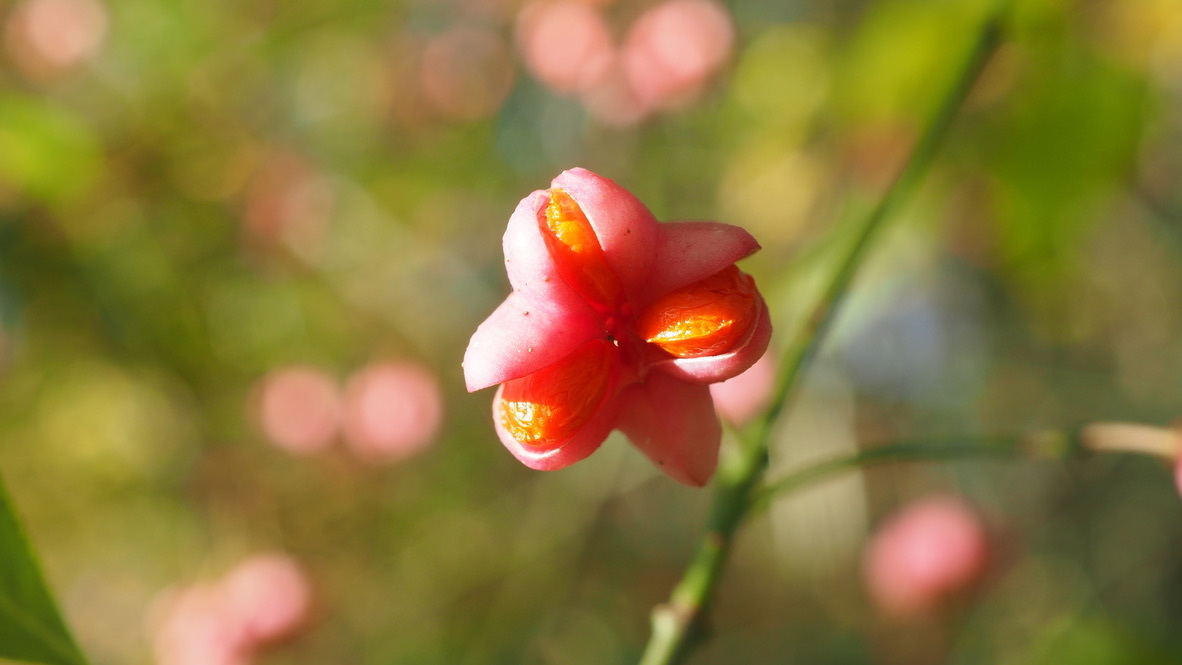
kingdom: Plantae
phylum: Tracheophyta
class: Magnoliopsida
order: Celastrales
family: Celastraceae
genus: Euonymus
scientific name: Euonymus europaeus
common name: Spindle
